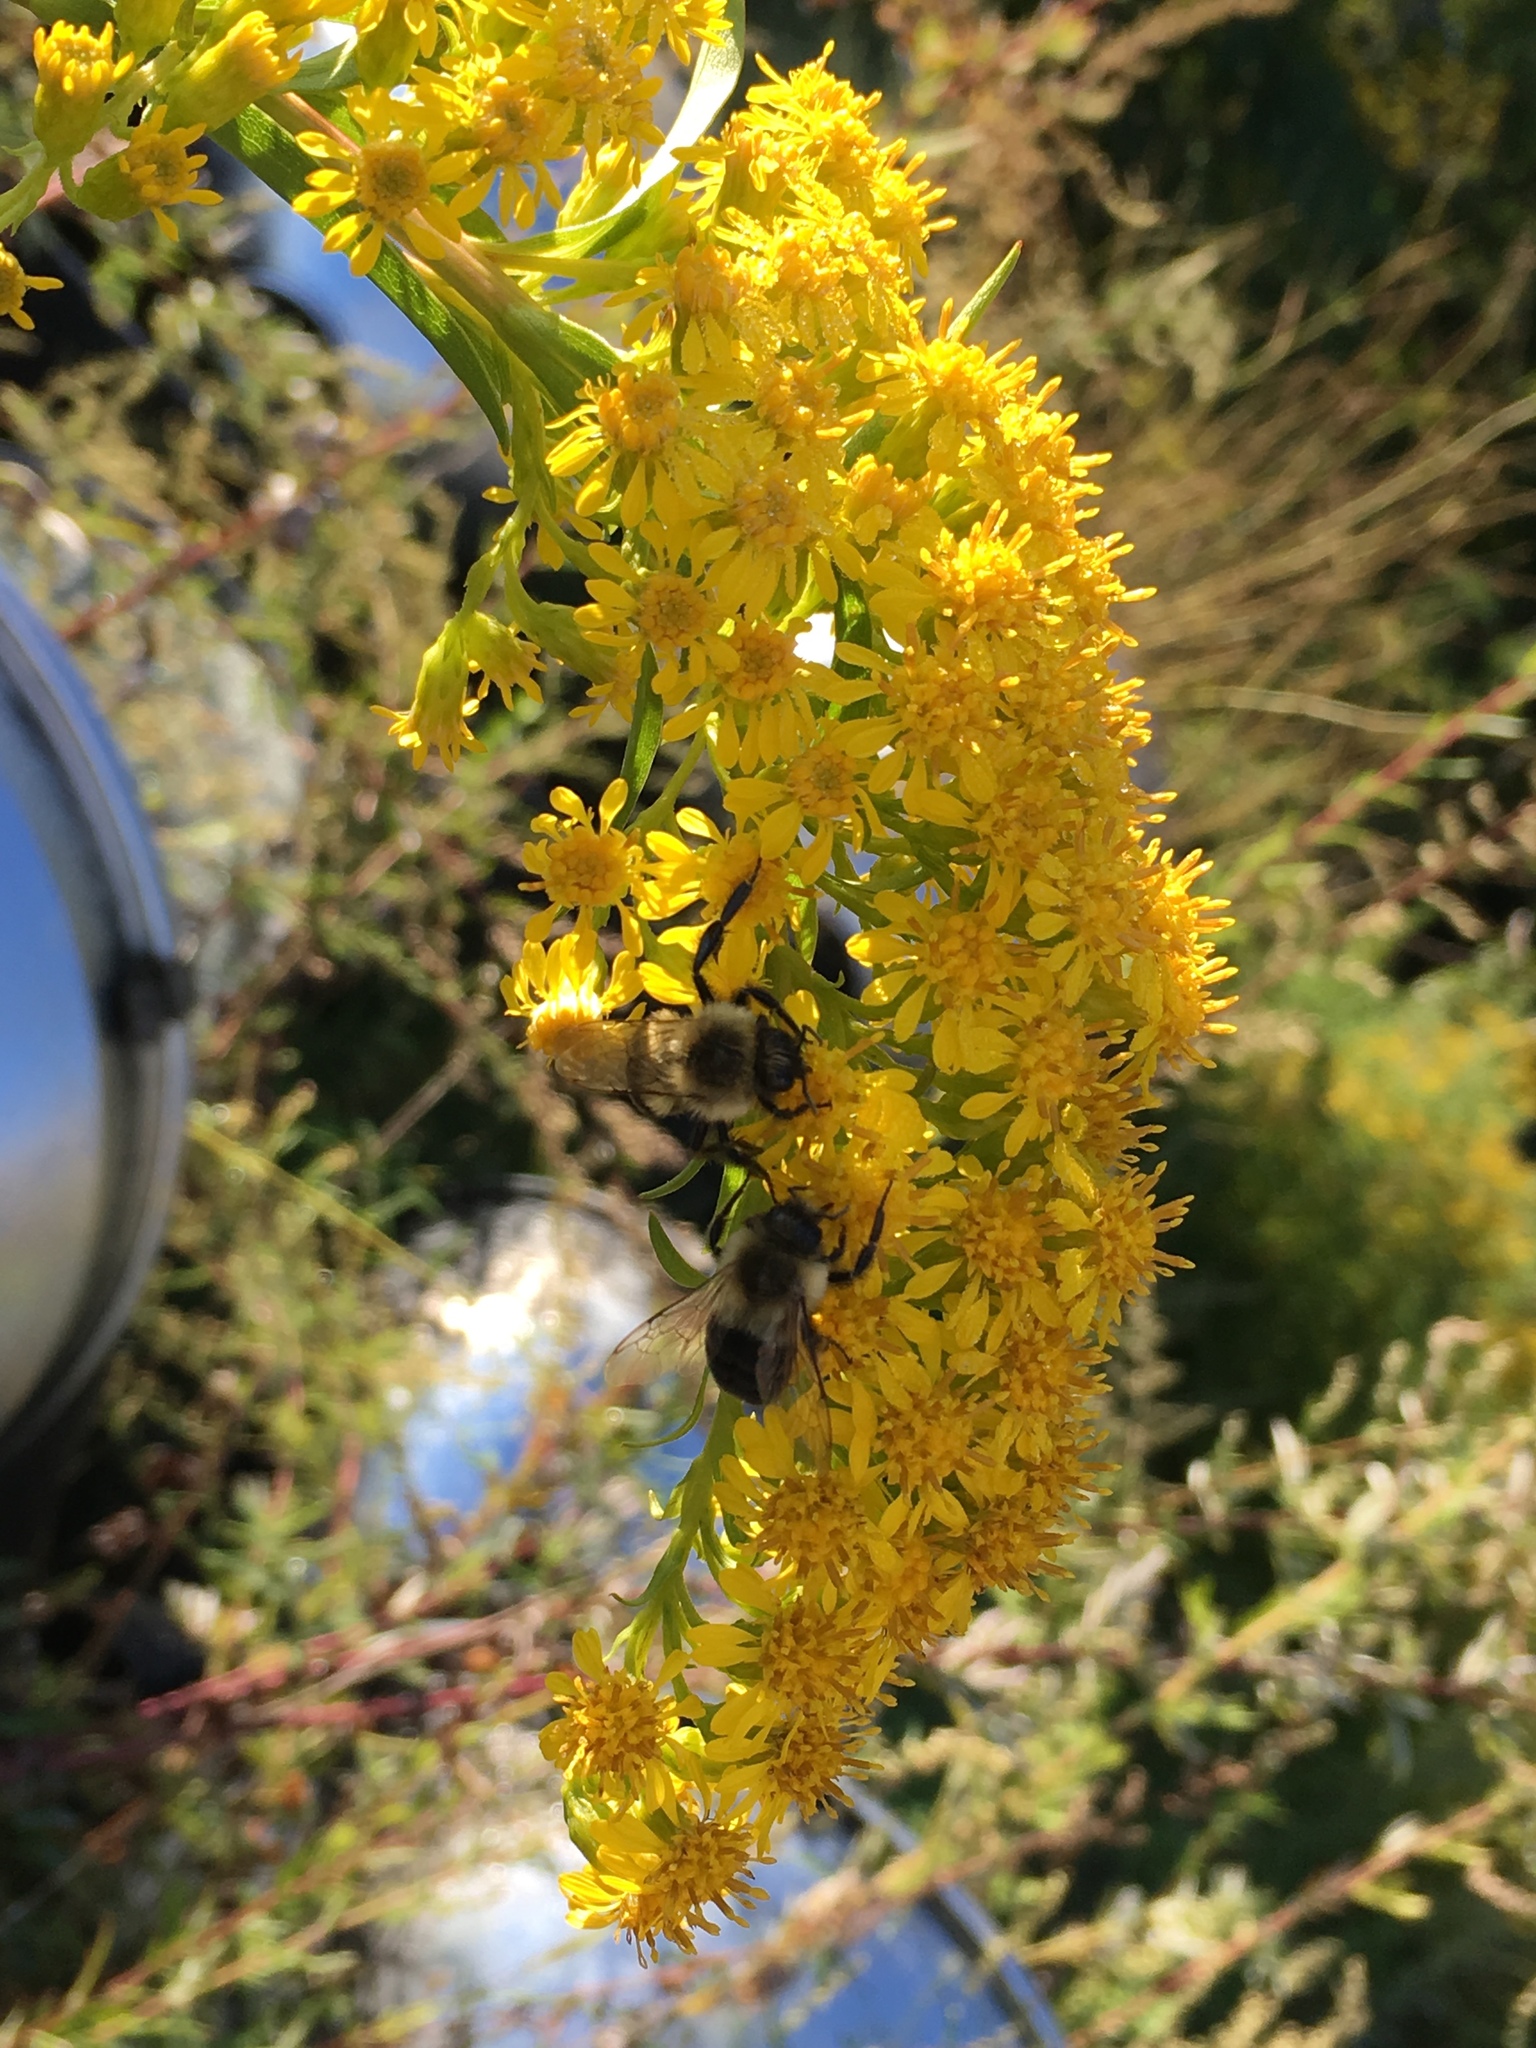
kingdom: Animalia
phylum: Arthropoda
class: Insecta
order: Hymenoptera
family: Apidae
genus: Bombus
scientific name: Bombus impatiens
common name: Common eastern bumble bee
